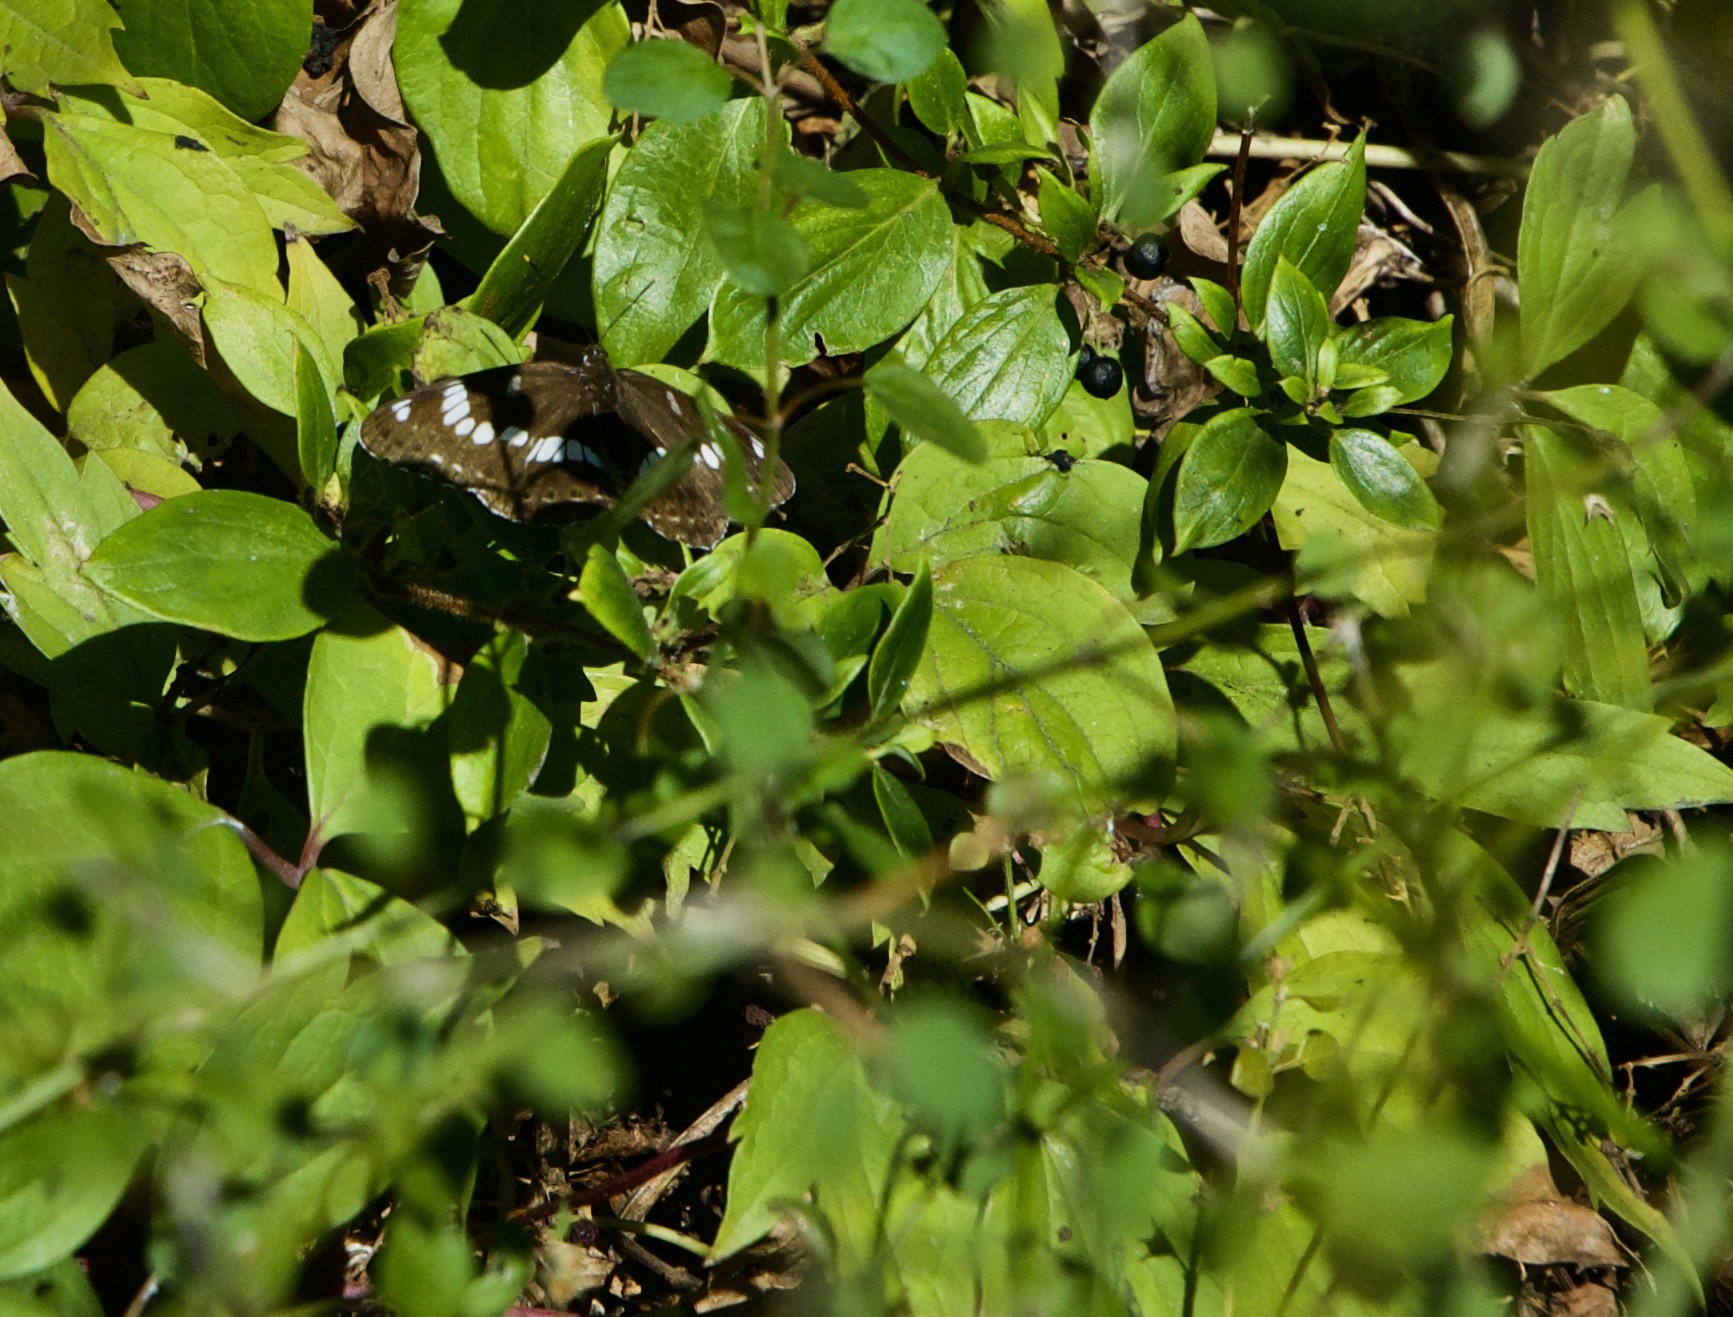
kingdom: Animalia
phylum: Arthropoda
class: Insecta
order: Lepidoptera
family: Nymphalidae
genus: Ladoga
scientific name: Ladoga camilla
